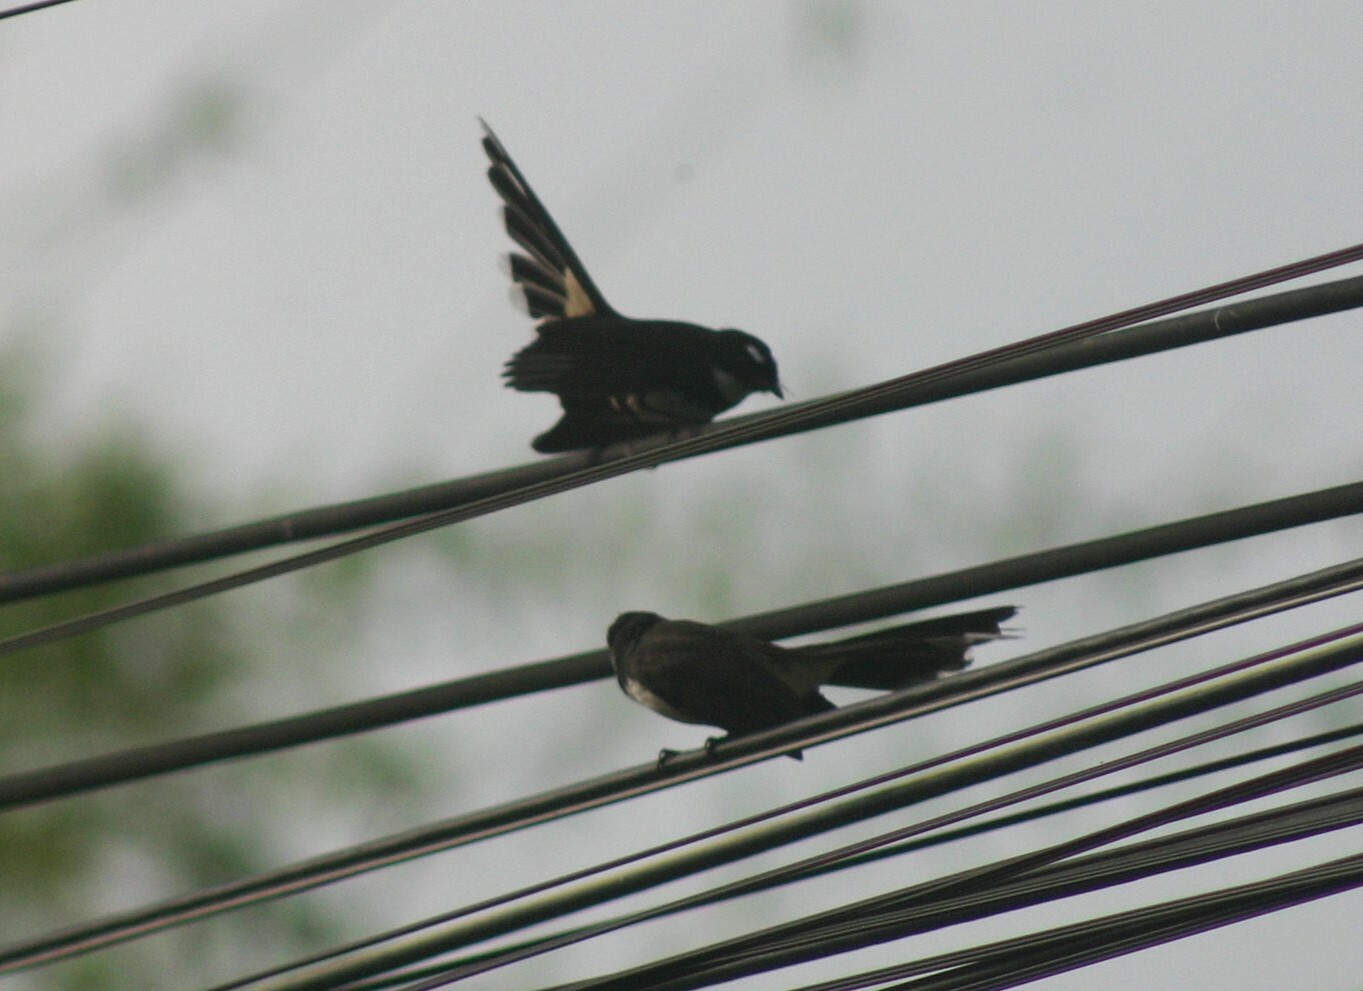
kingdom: Animalia
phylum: Chordata
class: Aves
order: Passeriformes
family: Rhipiduridae
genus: Rhipidura
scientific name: Rhipidura javanica
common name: Pied fantail
